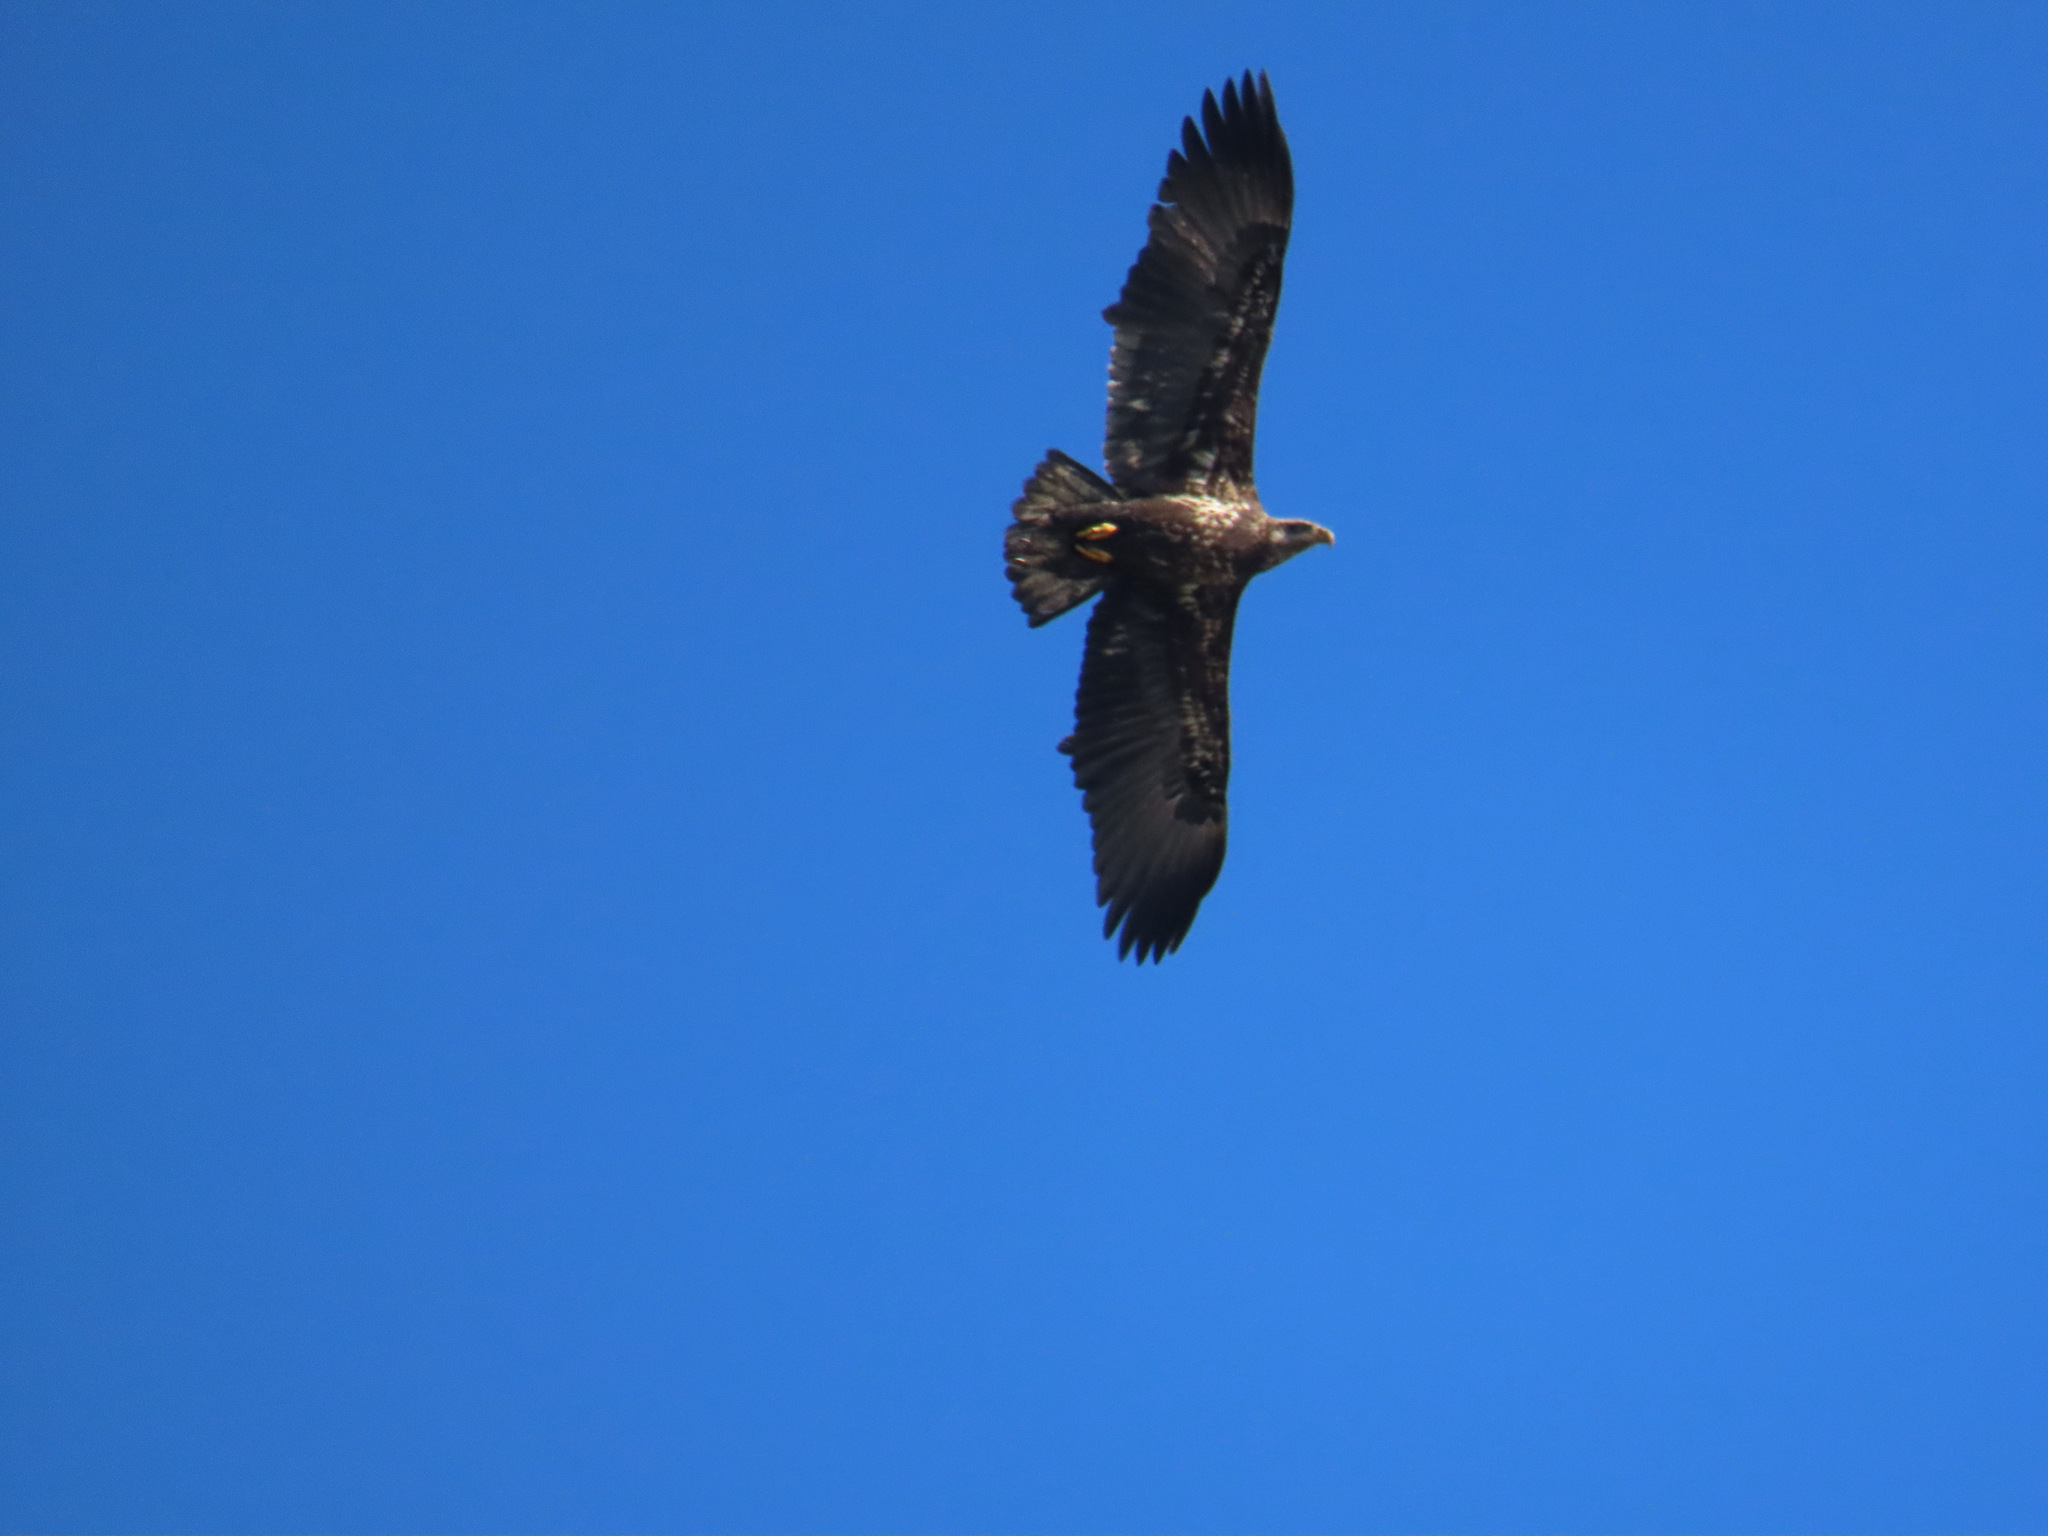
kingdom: Animalia
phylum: Chordata
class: Aves
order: Accipitriformes
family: Accipitridae
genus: Haliaeetus
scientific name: Haliaeetus leucocephalus
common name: Bald eagle
